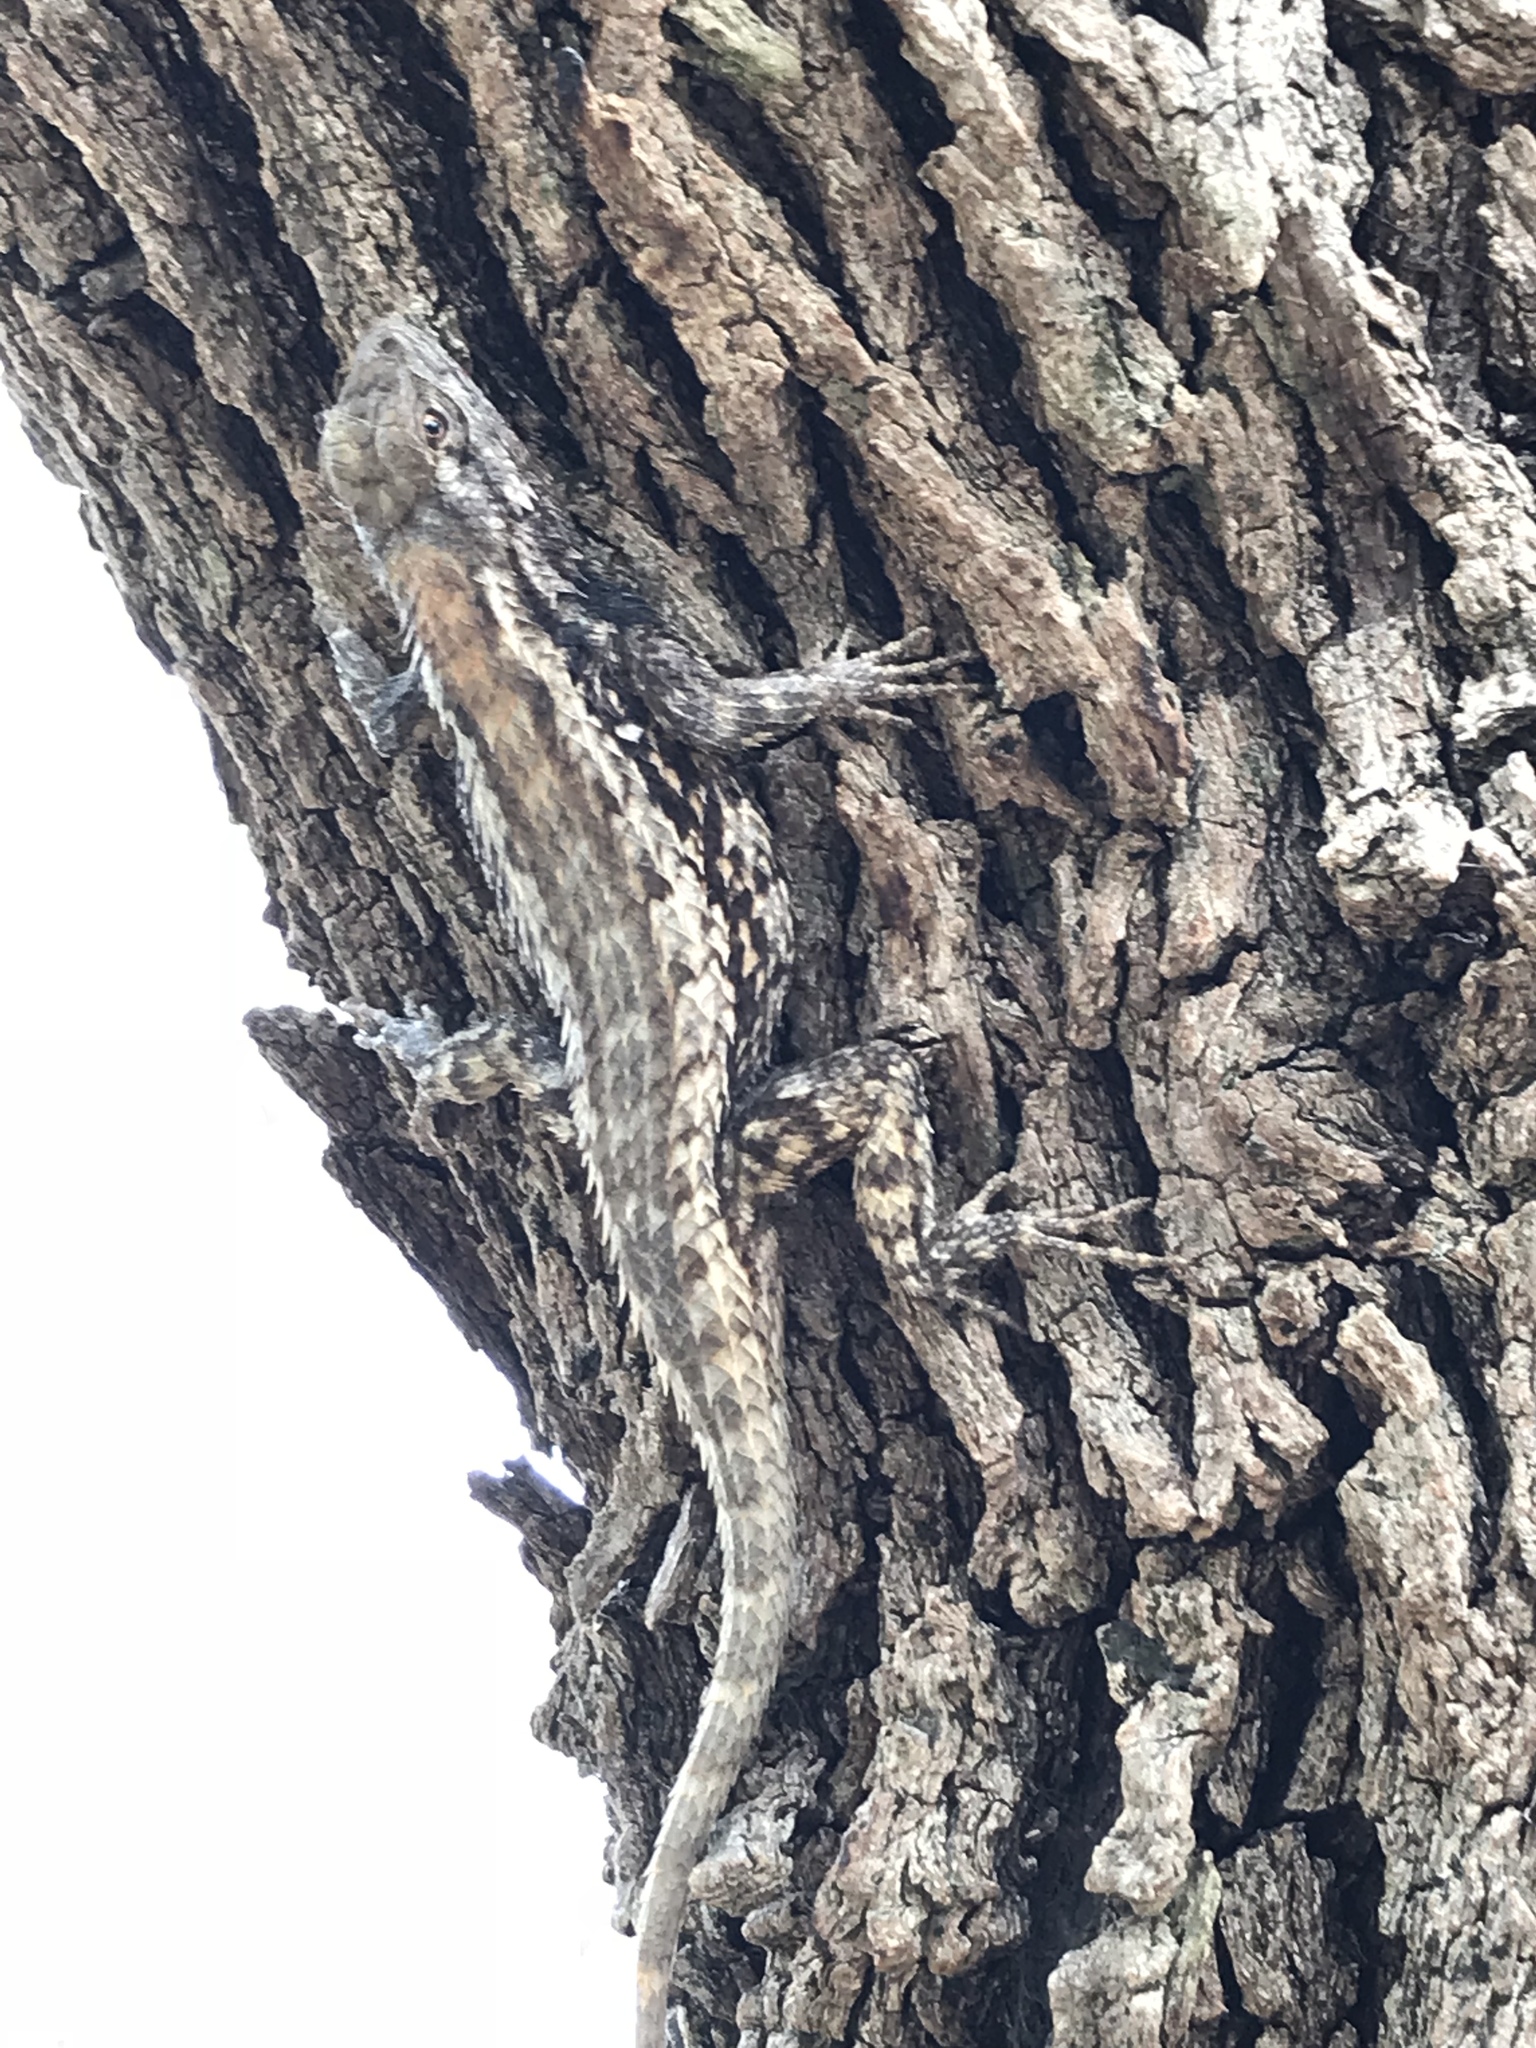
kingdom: Animalia
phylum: Chordata
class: Squamata
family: Phrynosomatidae
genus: Sceloporus
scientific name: Sceloporus olivaceus
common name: Texas spiny lizard
